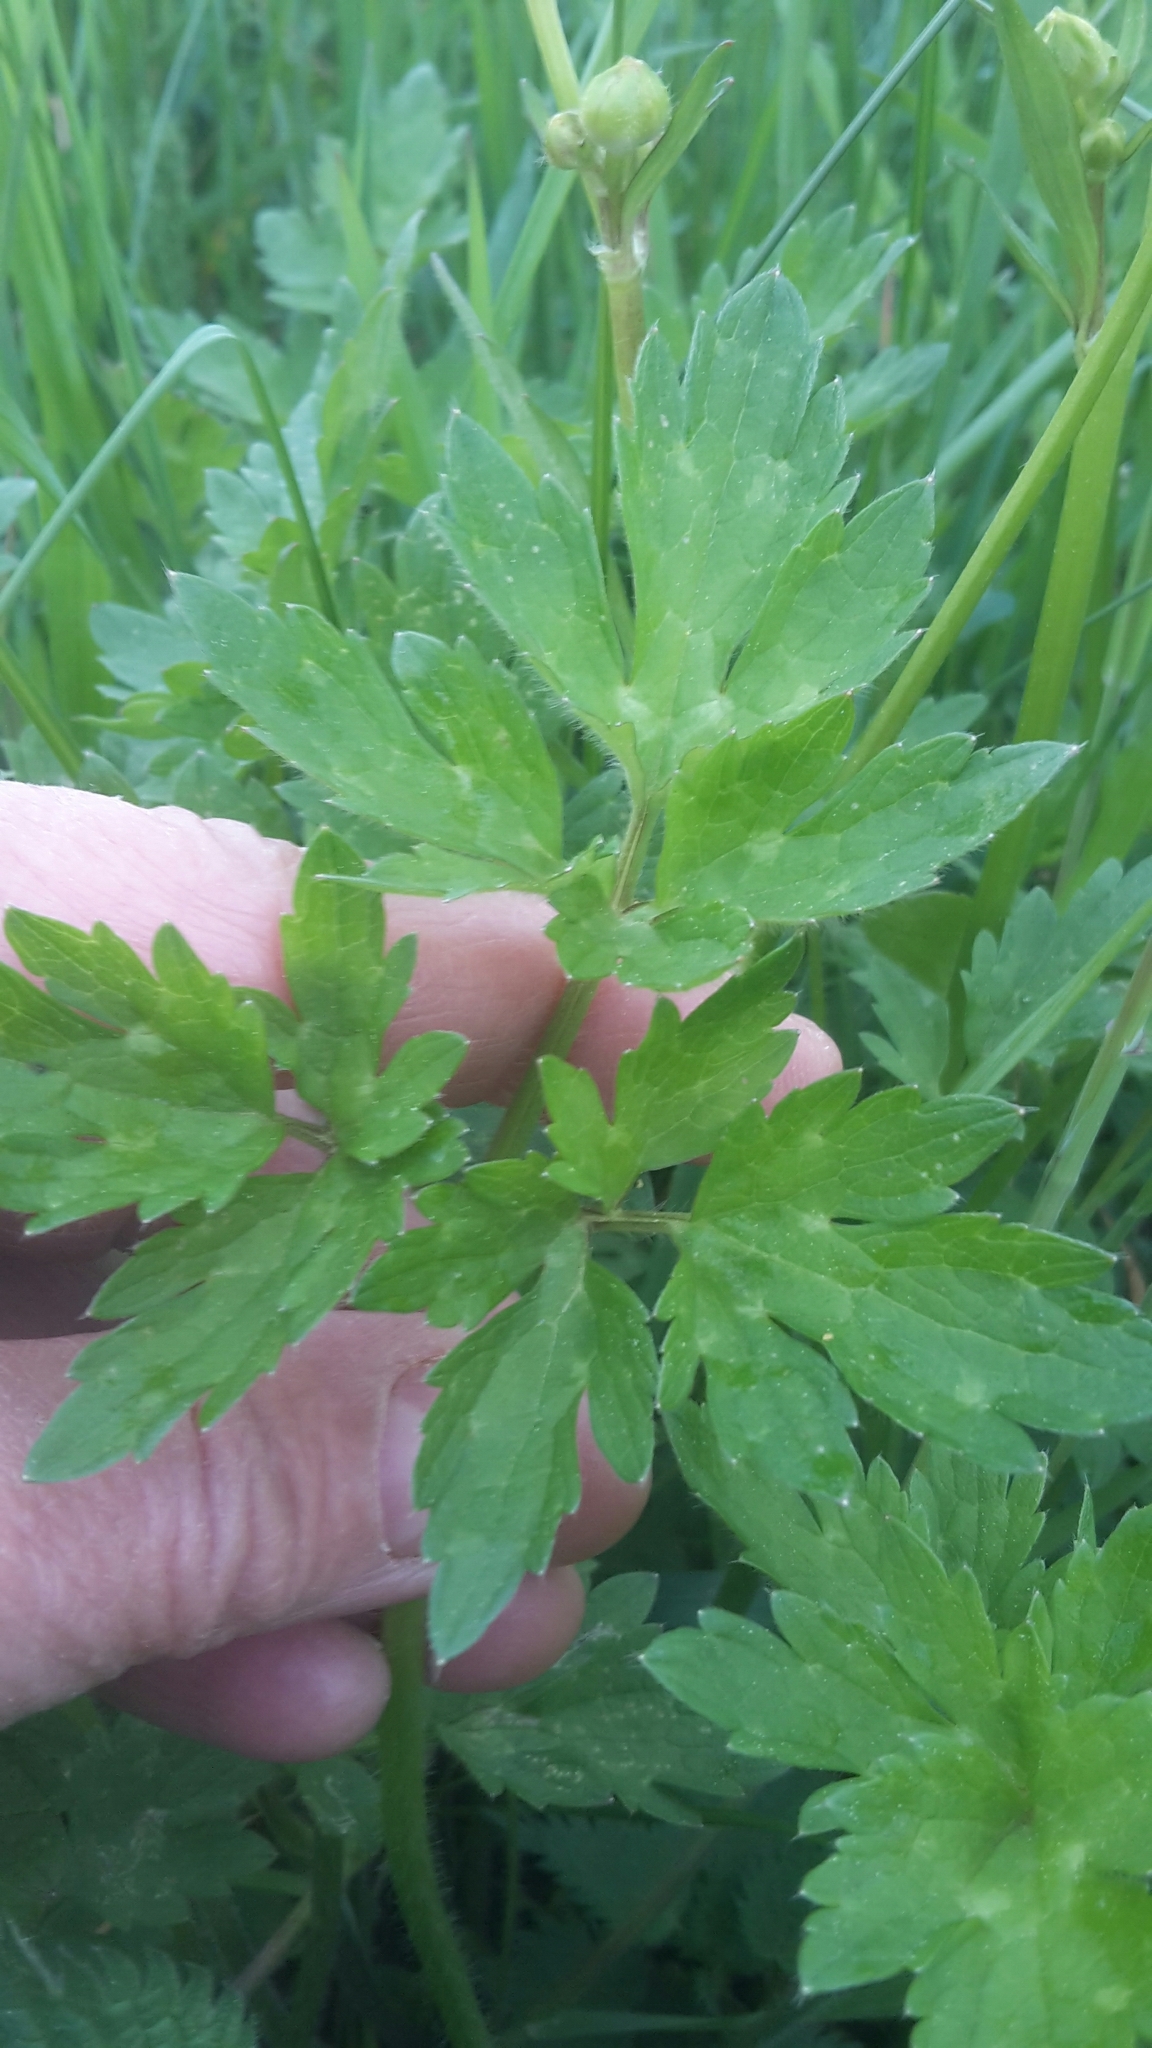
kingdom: Plantae
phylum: Tracheophyta
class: Magnoliopsida
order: Ranunculales
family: Ranunculaceae
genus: Ranunculus
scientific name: Ranunculus repens
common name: Creeping buttercup
